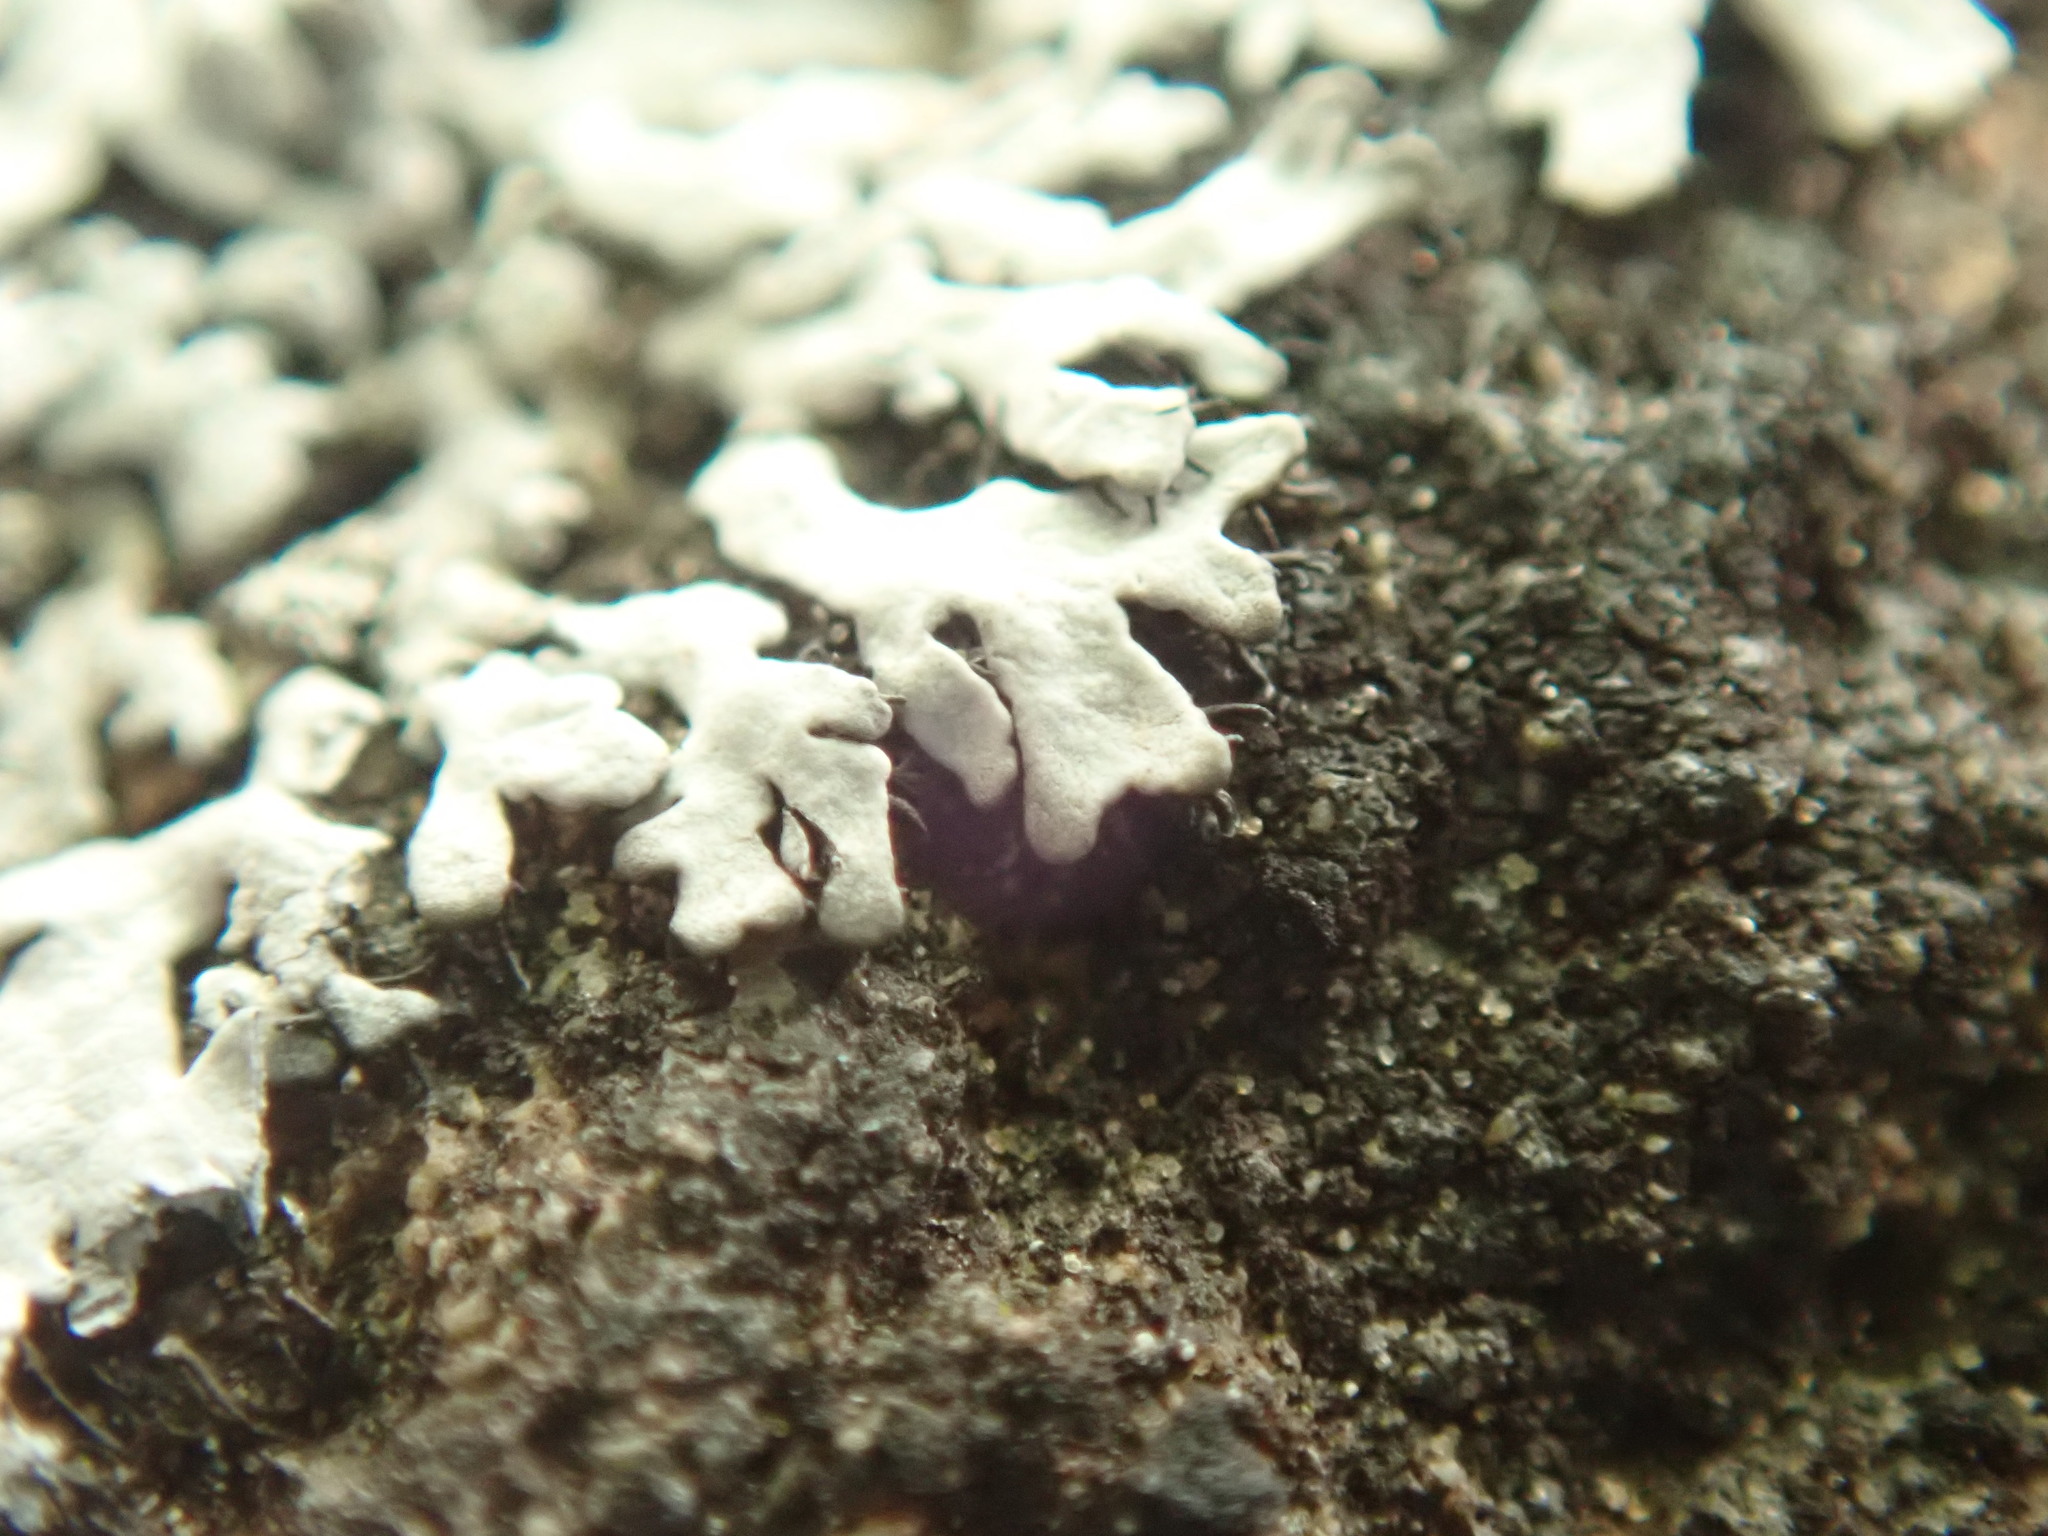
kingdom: Fungi
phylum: Ascomycota
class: Lecanoromycetes
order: Caliciales
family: Physciaceae
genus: Physcia
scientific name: Physcia caesia
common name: Blue-gray rosette lichen
